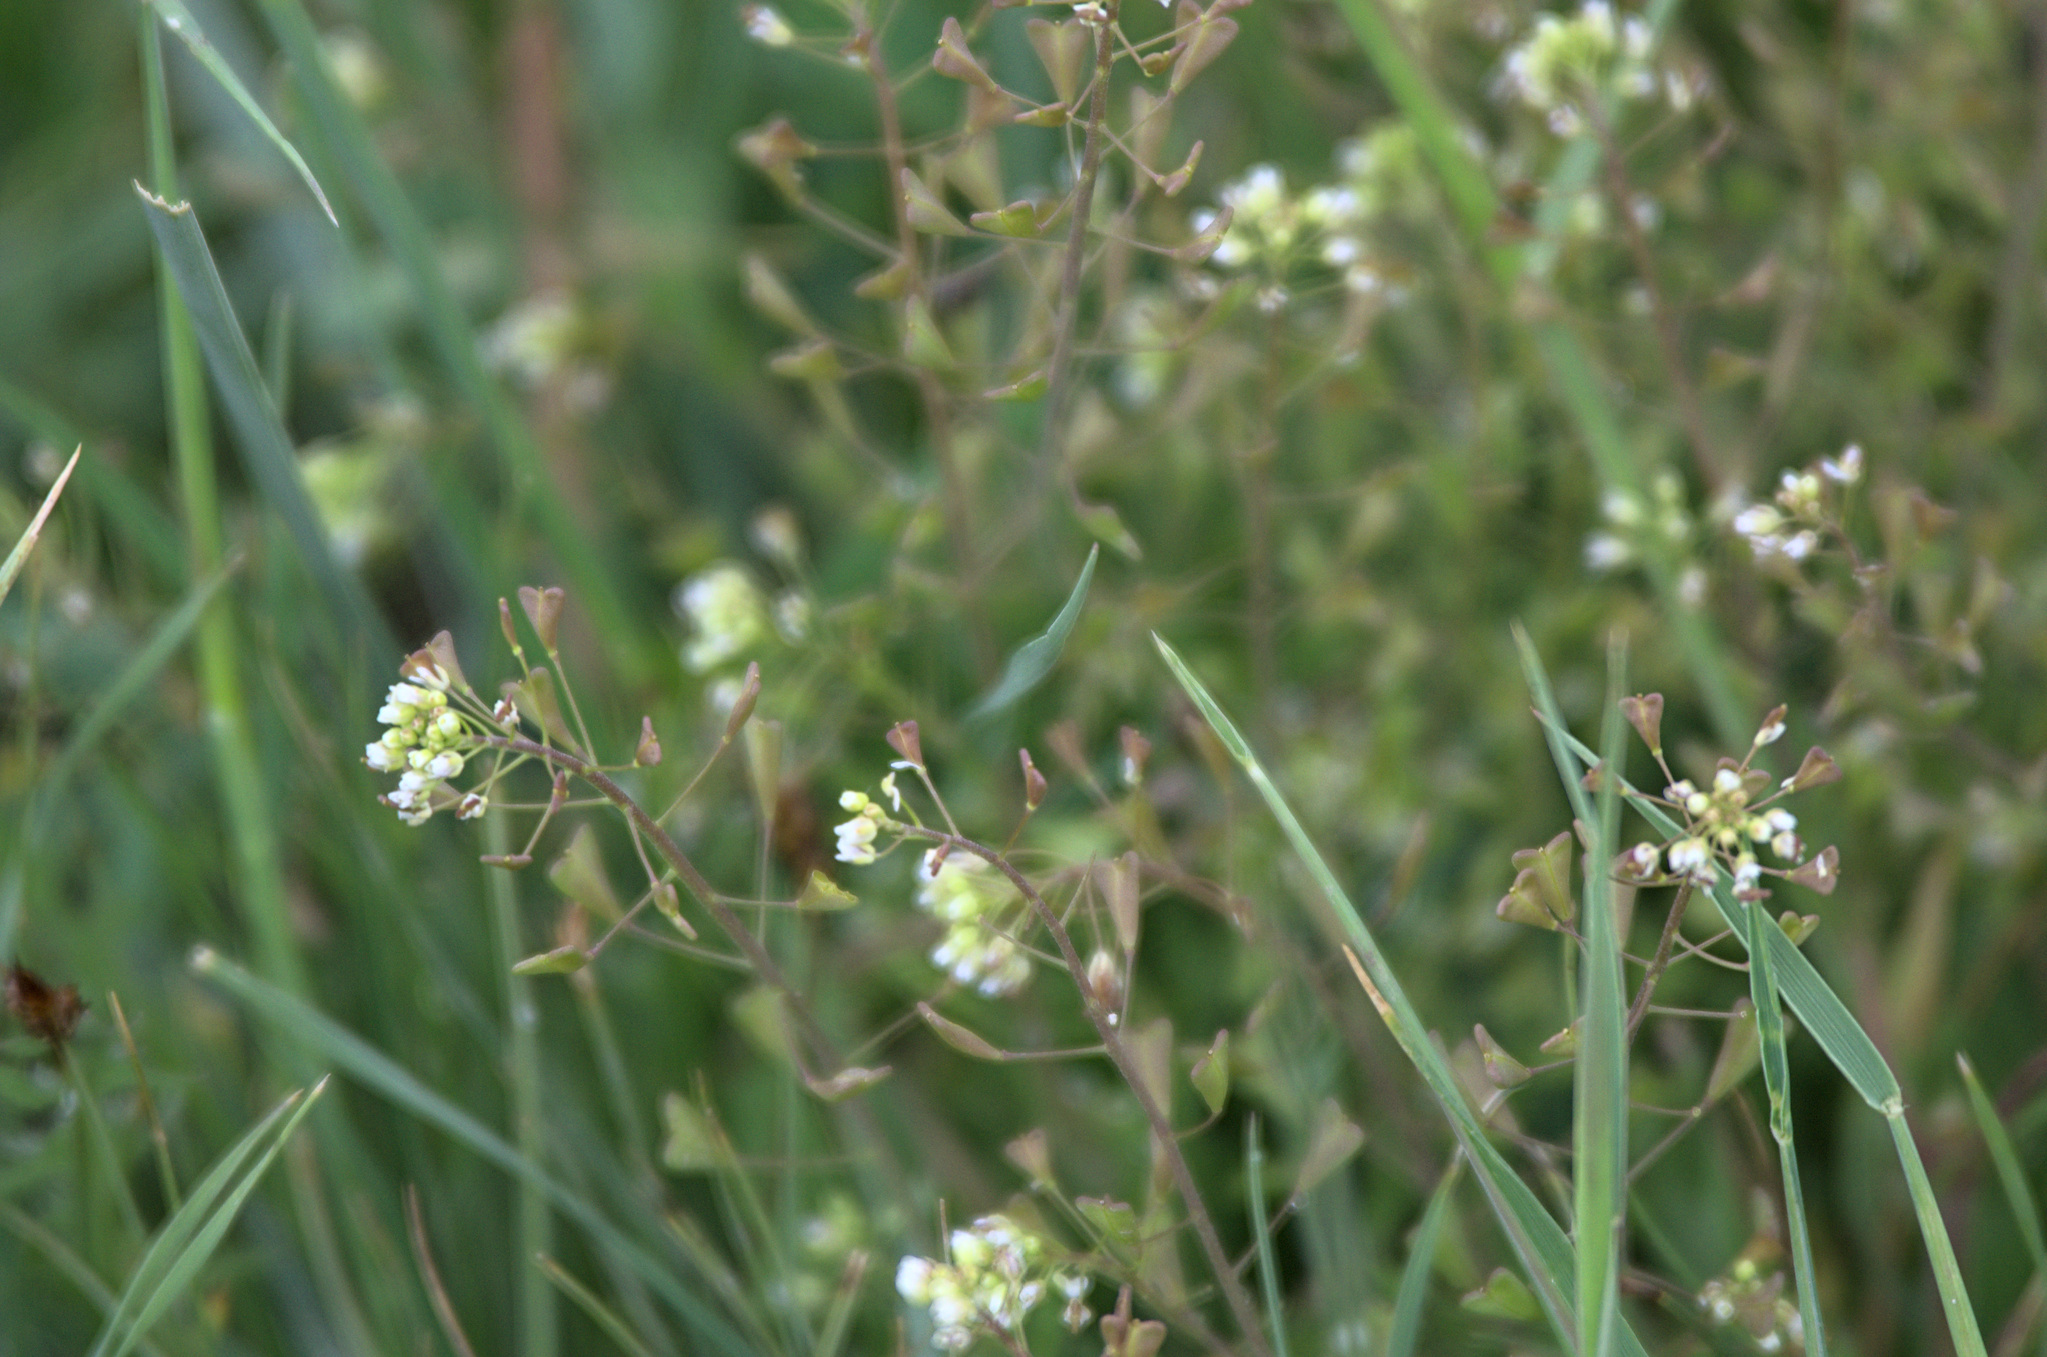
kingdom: Plantae
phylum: Tracheophyta
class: Magnoliopsida
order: Brassicales
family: Brassicaceae
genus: Capsella
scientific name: Capsella bursa-pastoris
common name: Shepherd's purse
